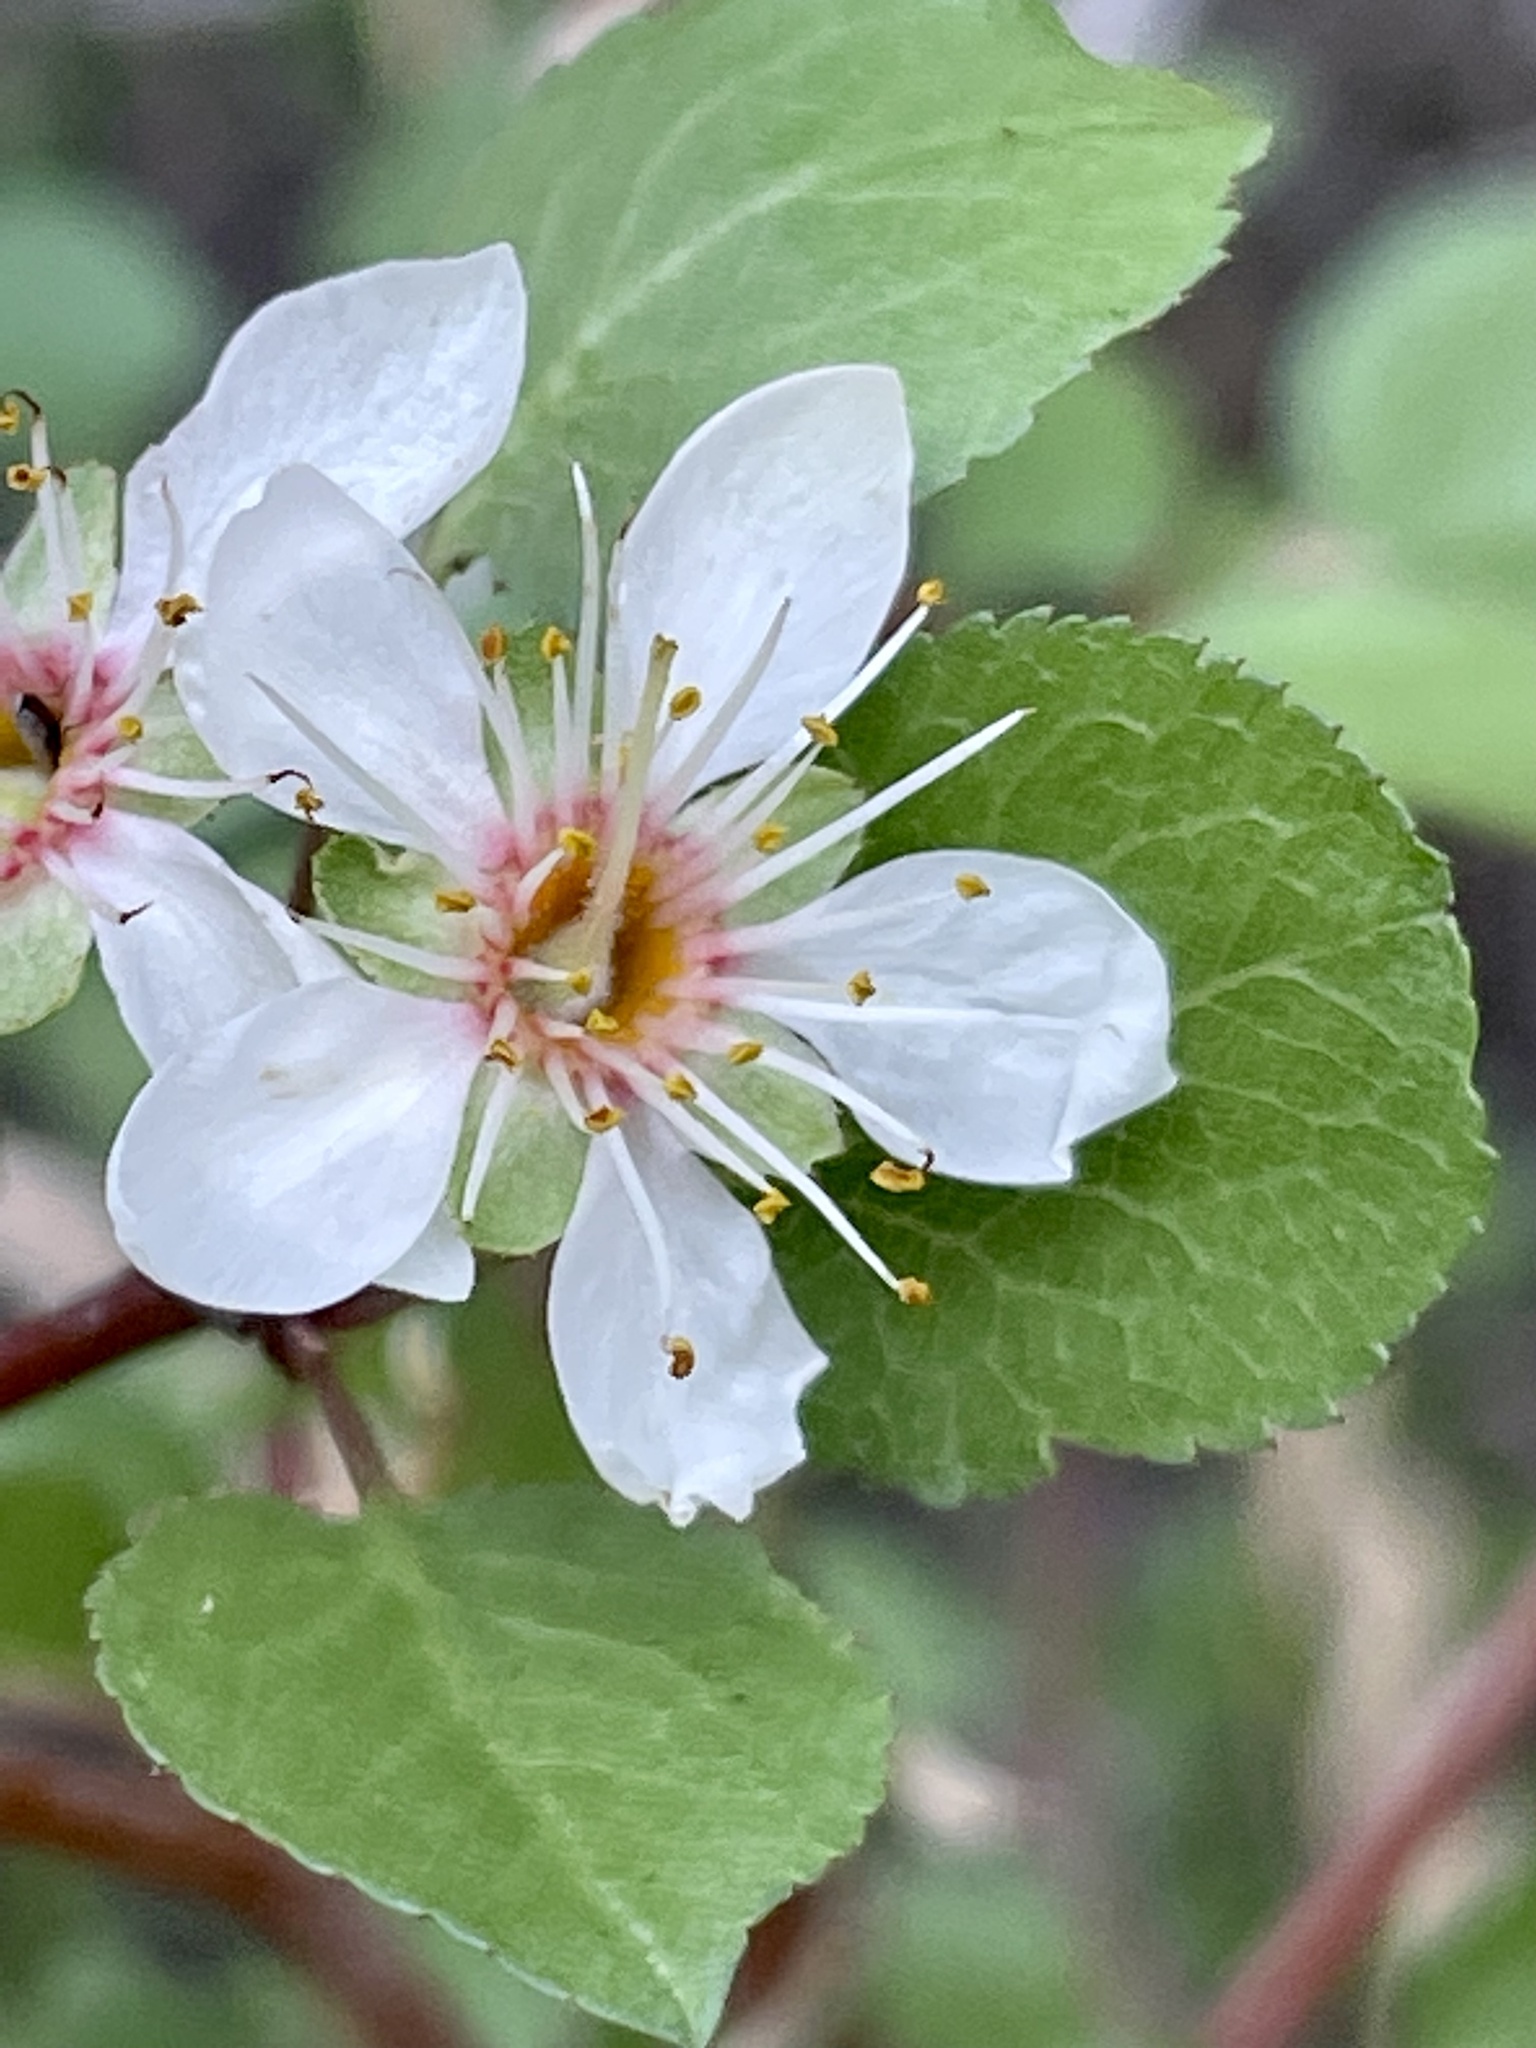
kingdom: Plantae
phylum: Tracheophyta
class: Magnoliopsida
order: Rosales
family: Rosaceae
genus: Prunus
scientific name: Prunus fremontii
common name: Desert apricot
